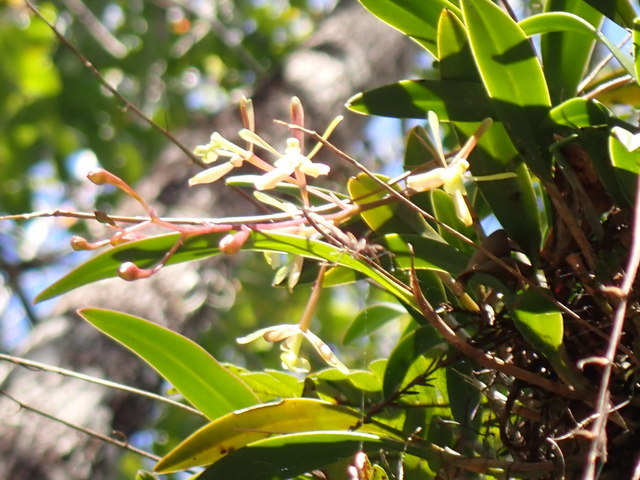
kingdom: Plantae
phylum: Tracheophyta
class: Liliopsida
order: Asparagales
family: Orchidaceae
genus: Epidendrum
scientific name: Epidendrum conopseum
